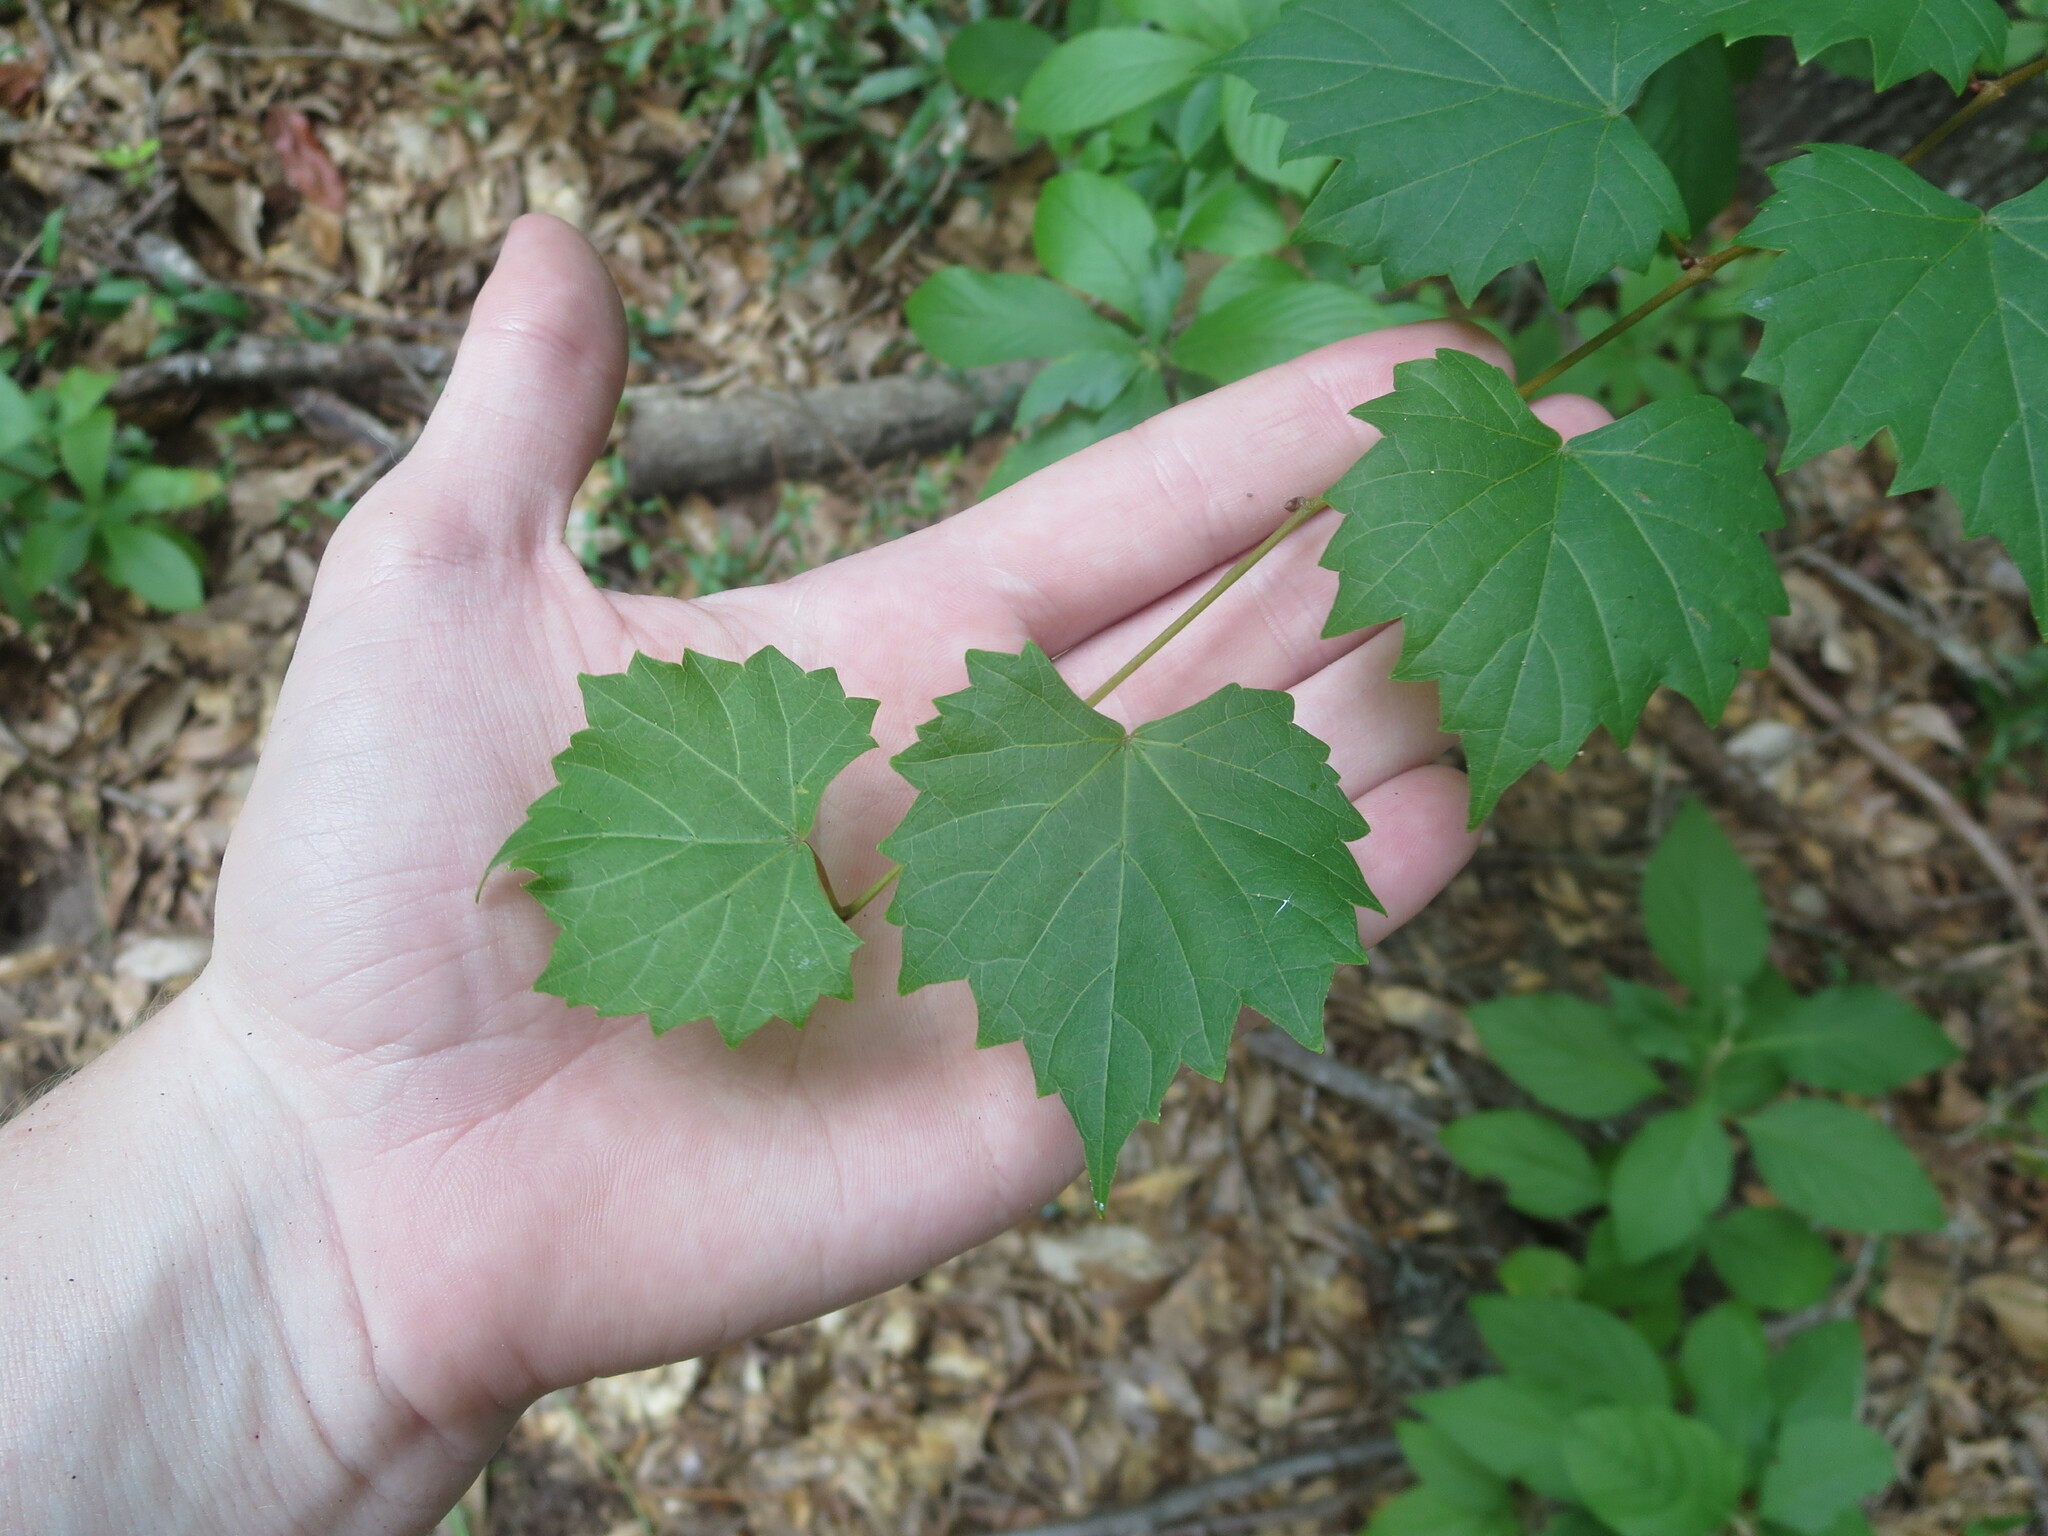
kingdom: Plantae
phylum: Tracheophyta
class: Magnoliopsida
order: Vitales
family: Vitaceae
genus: Vitis
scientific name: Vitis rotundifolia
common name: Muscadine grape
